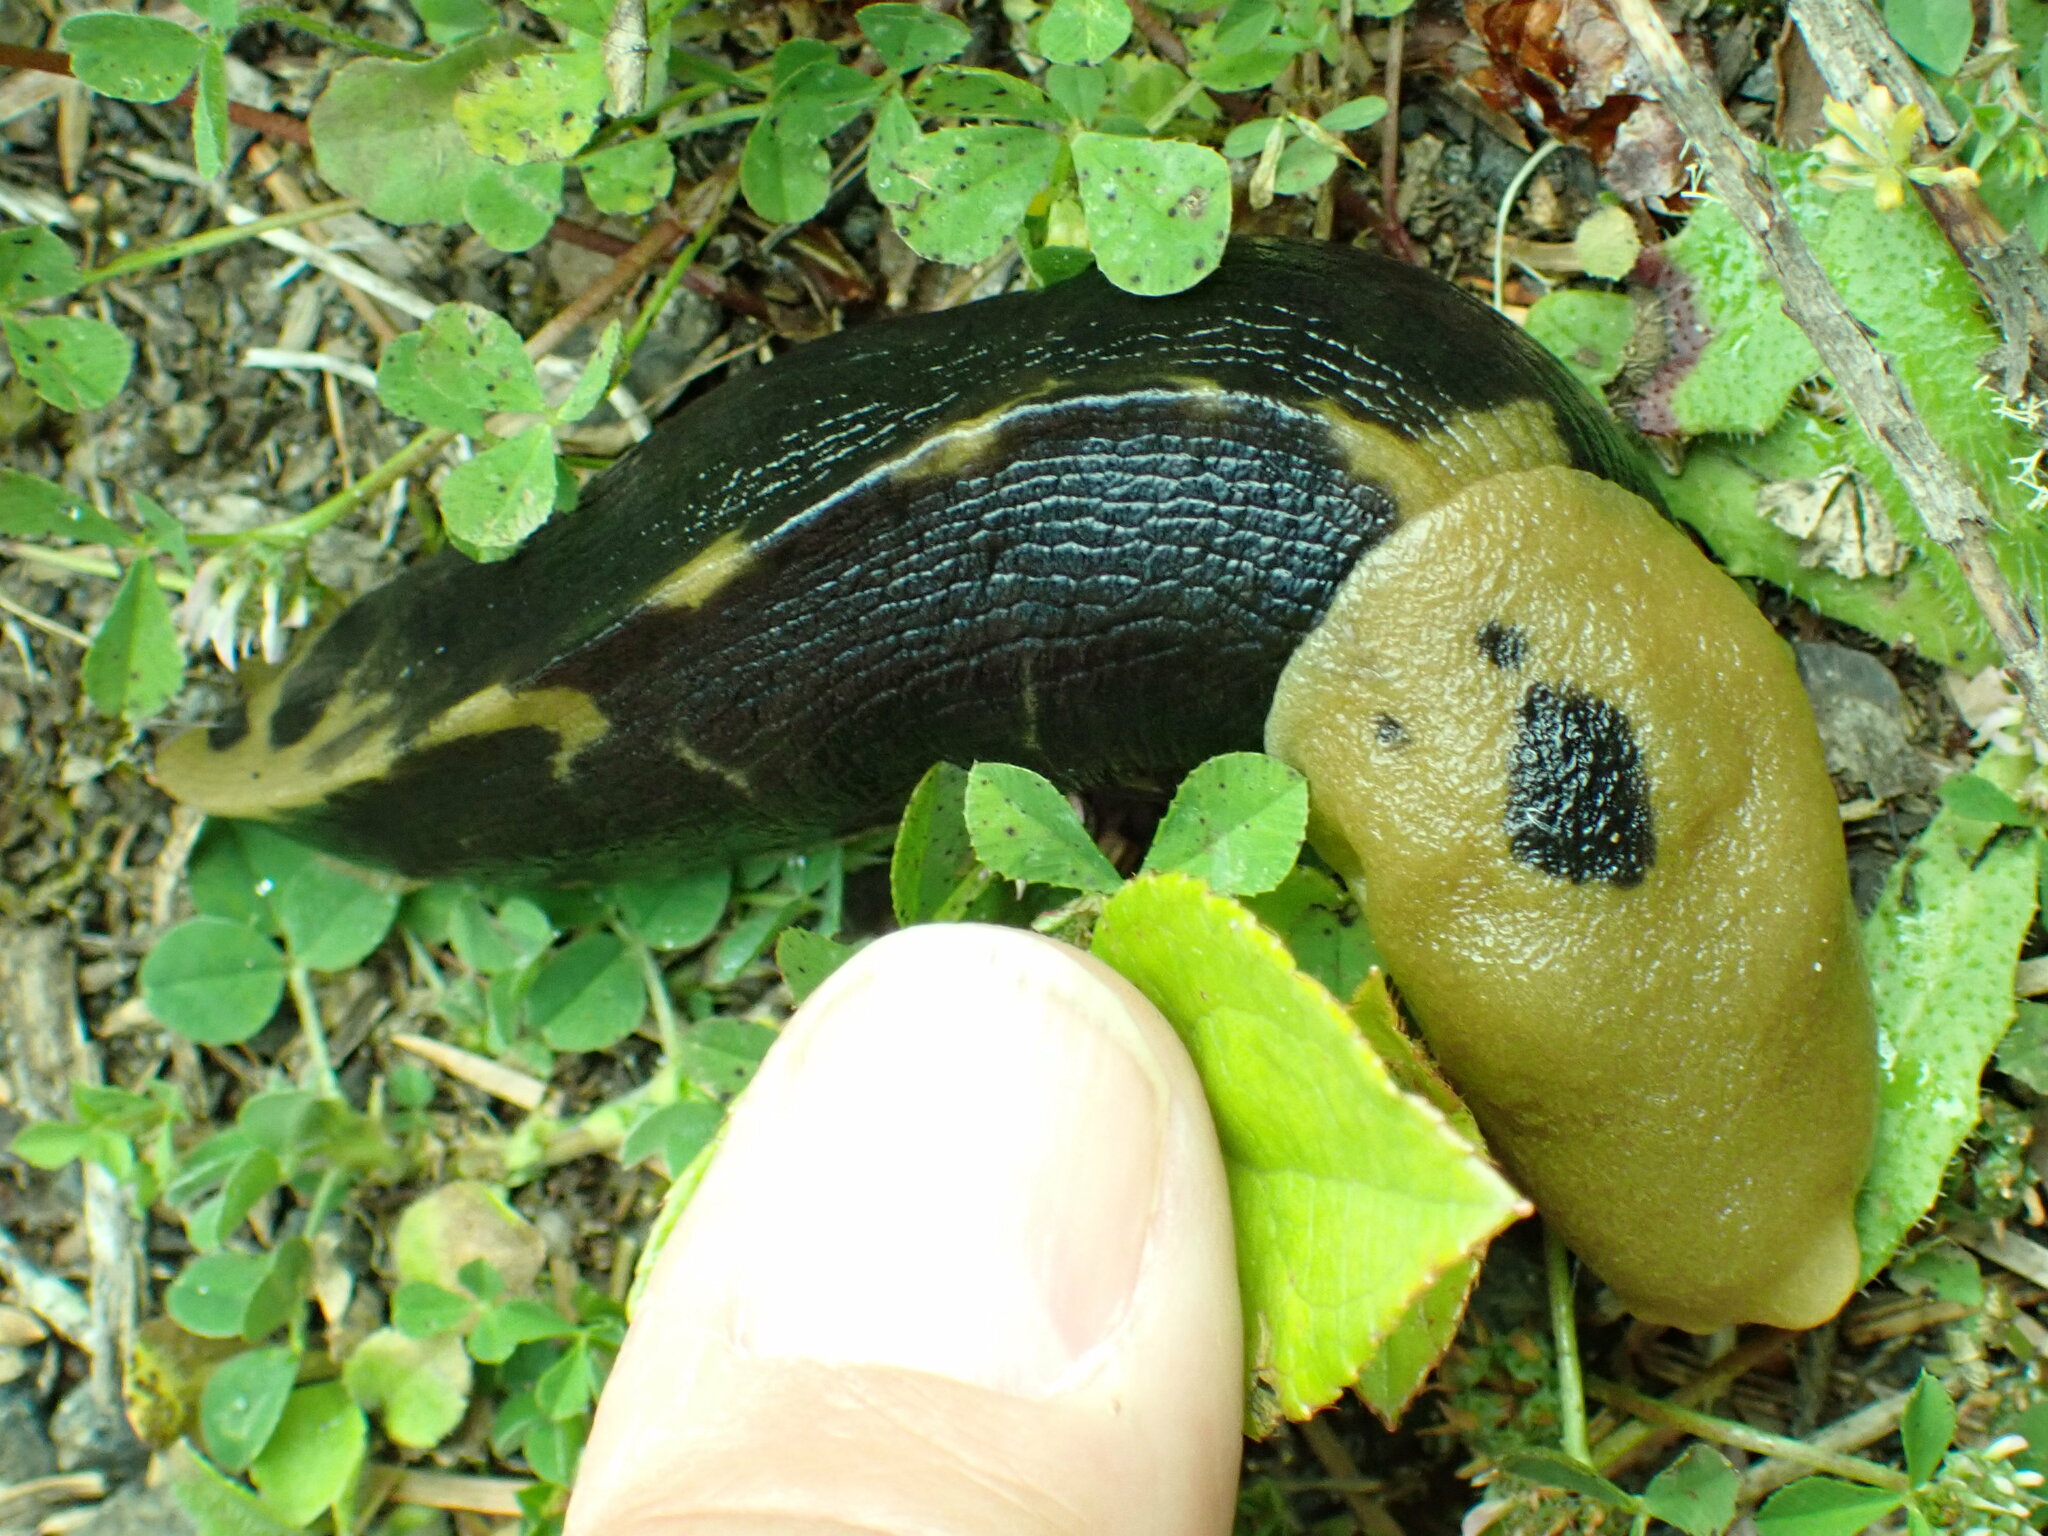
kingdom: Animalia
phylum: Mollusca
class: Gastropoda
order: Stylommatophora
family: Ariolimacidae
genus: Ariolimax
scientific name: Ariolimax columbianus
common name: Pacific banana slug
